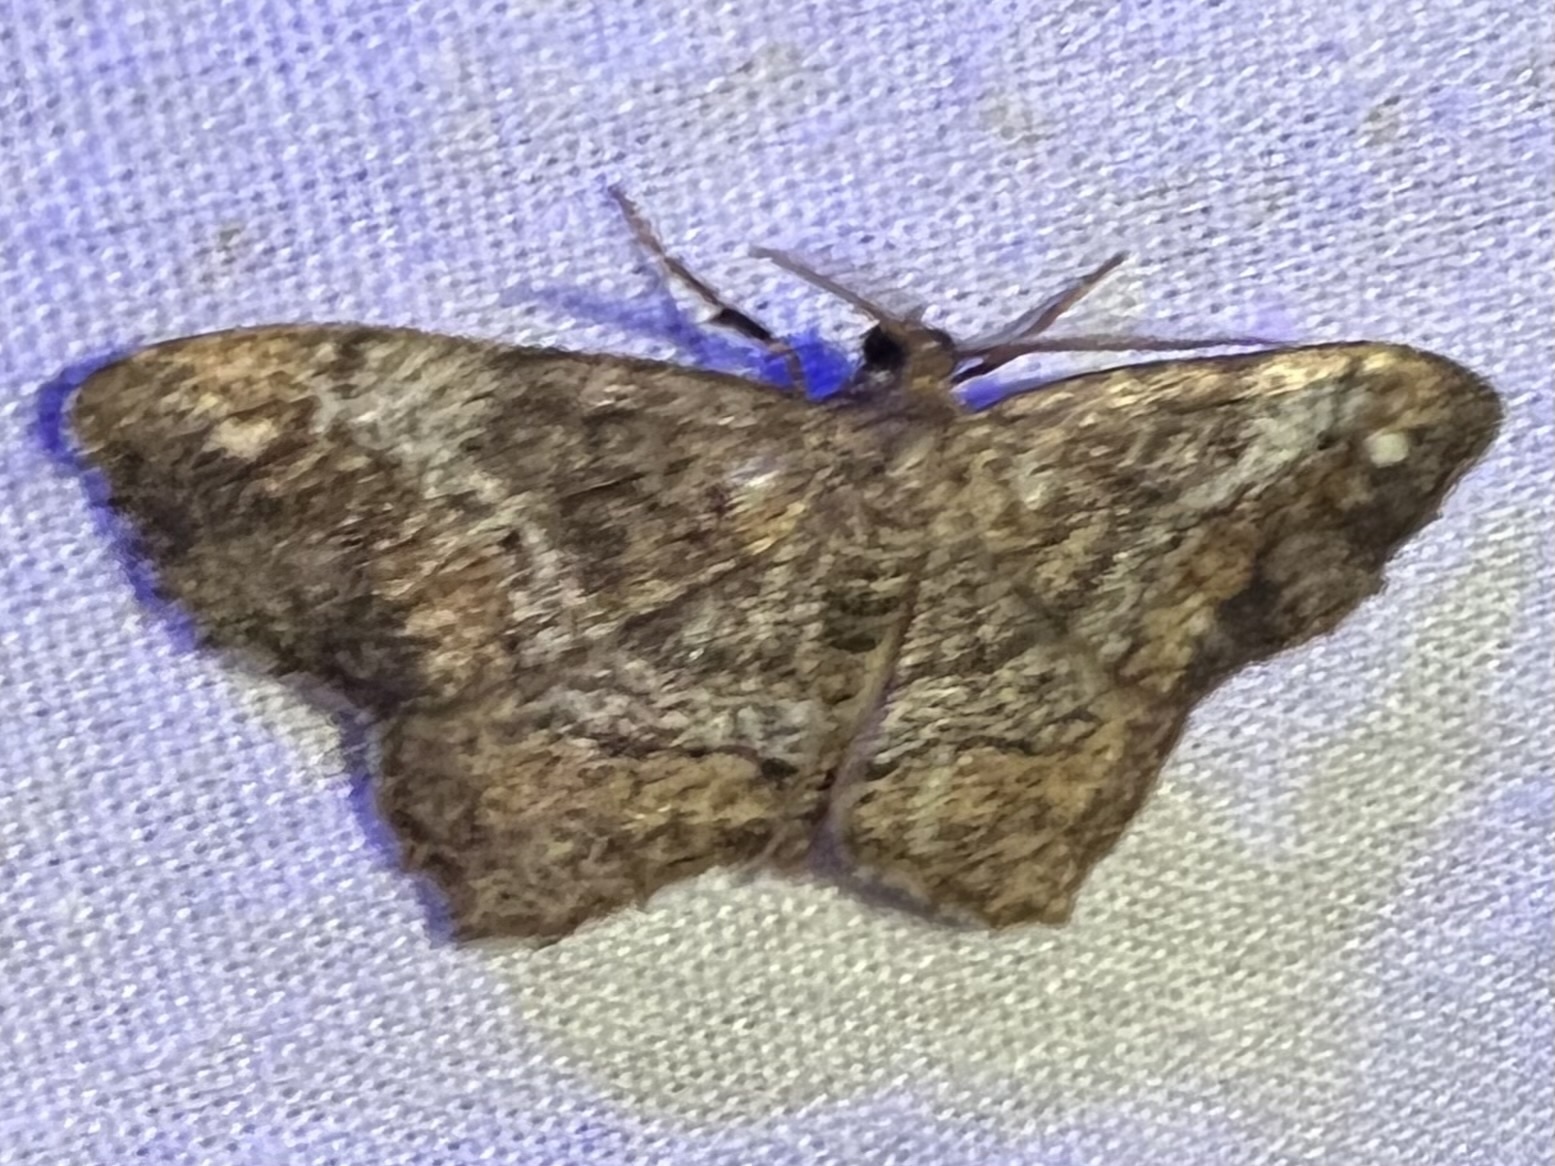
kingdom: Animalia
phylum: Arthropoda
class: Insecta
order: Lepidoptera
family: Geometridae
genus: Hypagyrtis
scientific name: Hypagyrtis unipunctata
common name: One-spotted variant
